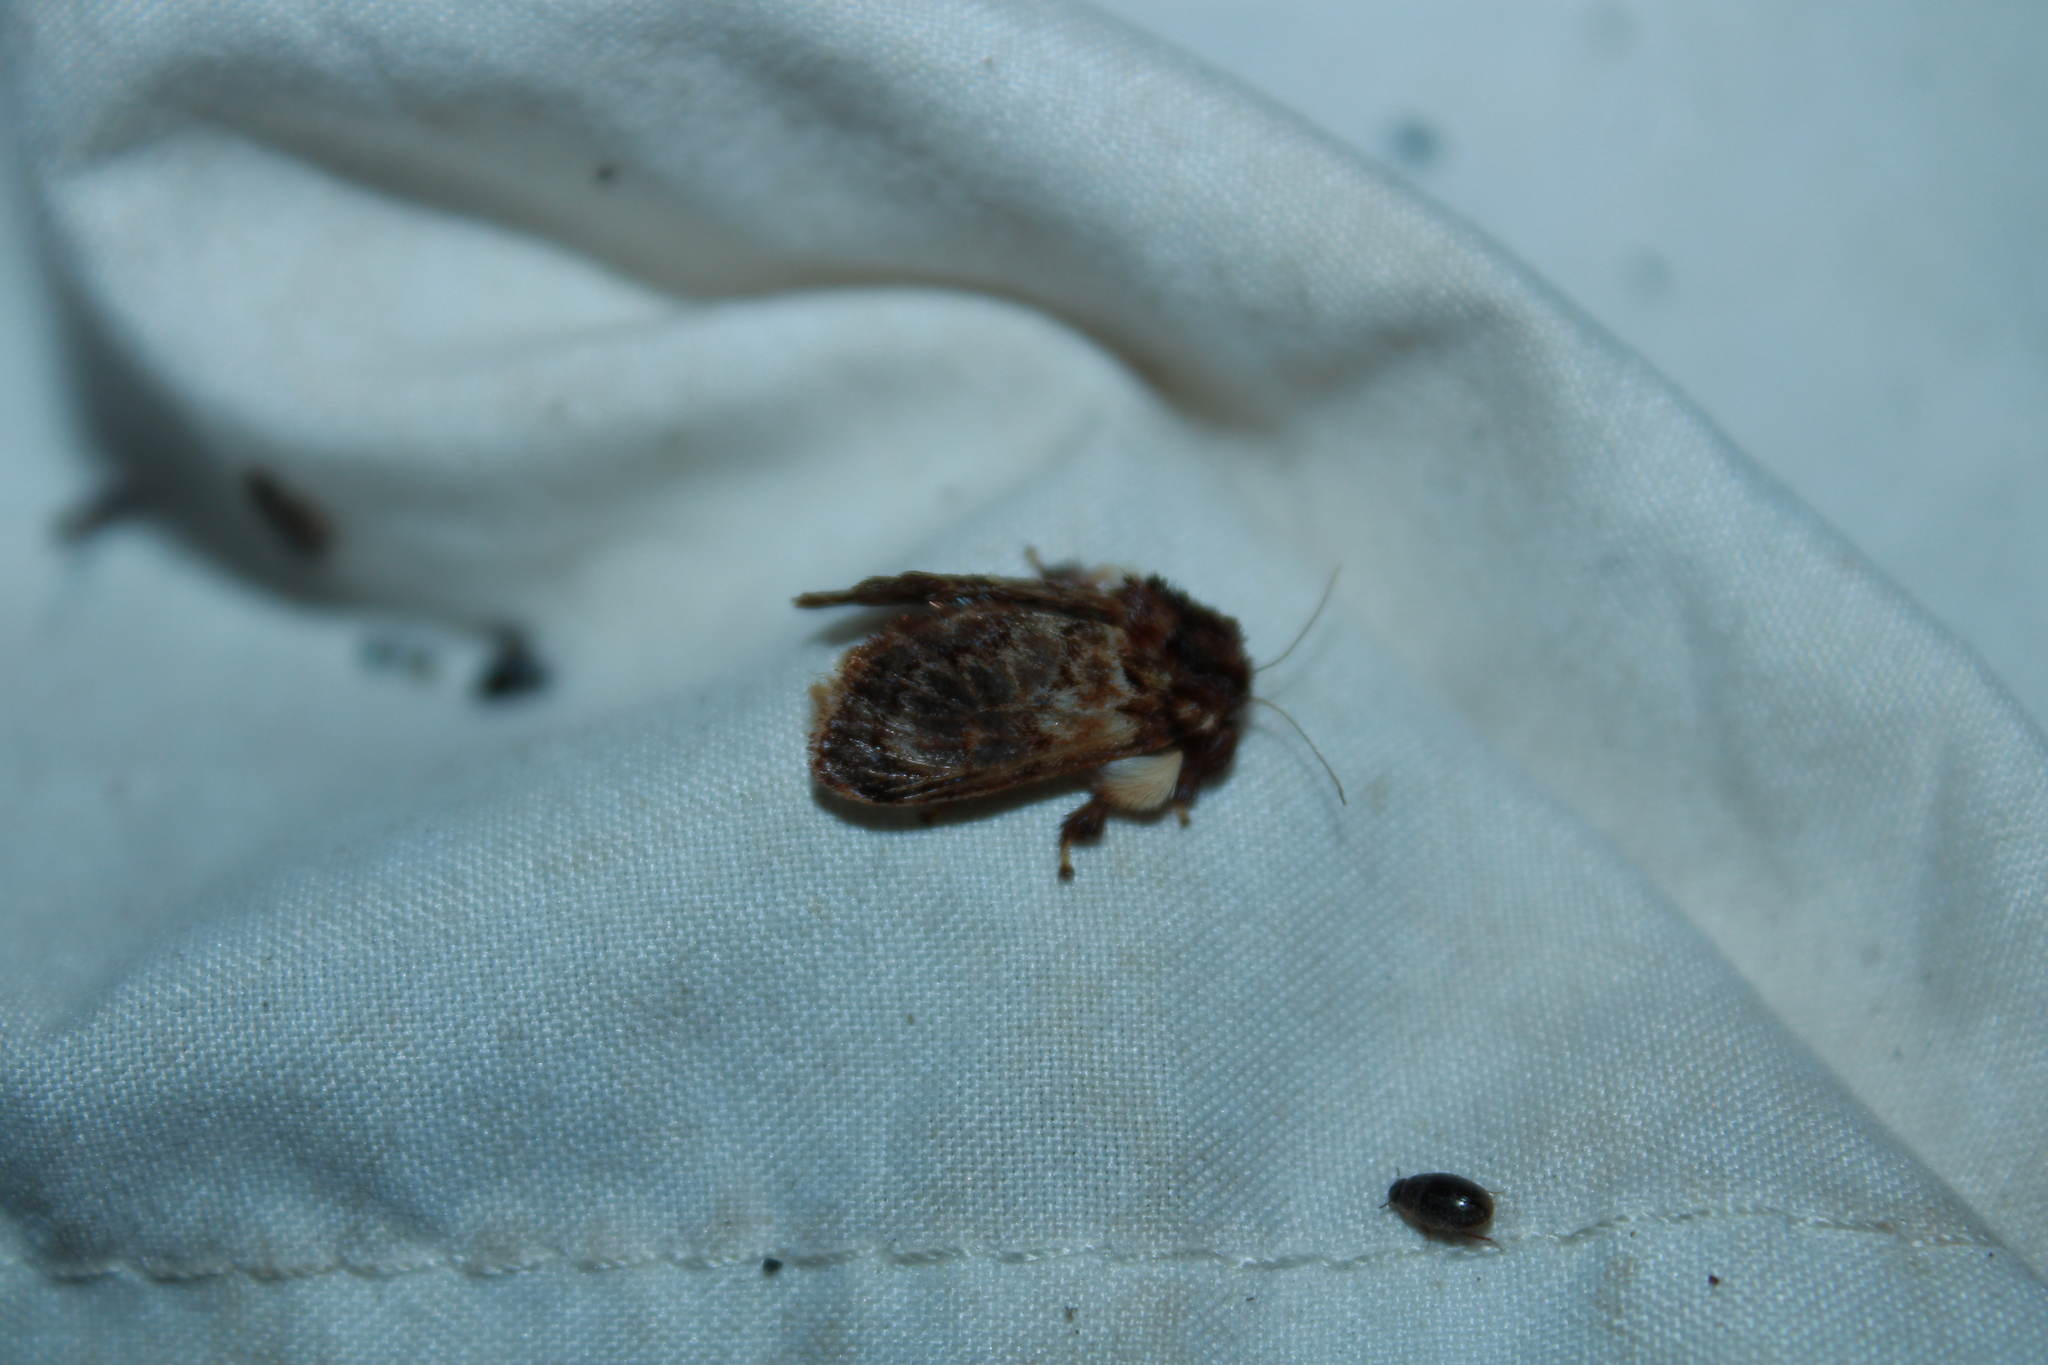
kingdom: Animalia
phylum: Arthropoda
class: Insecta
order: Lepidoptera
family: Limacodidae
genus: Phobetron
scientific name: Phobetron pithecium
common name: Hag moth
